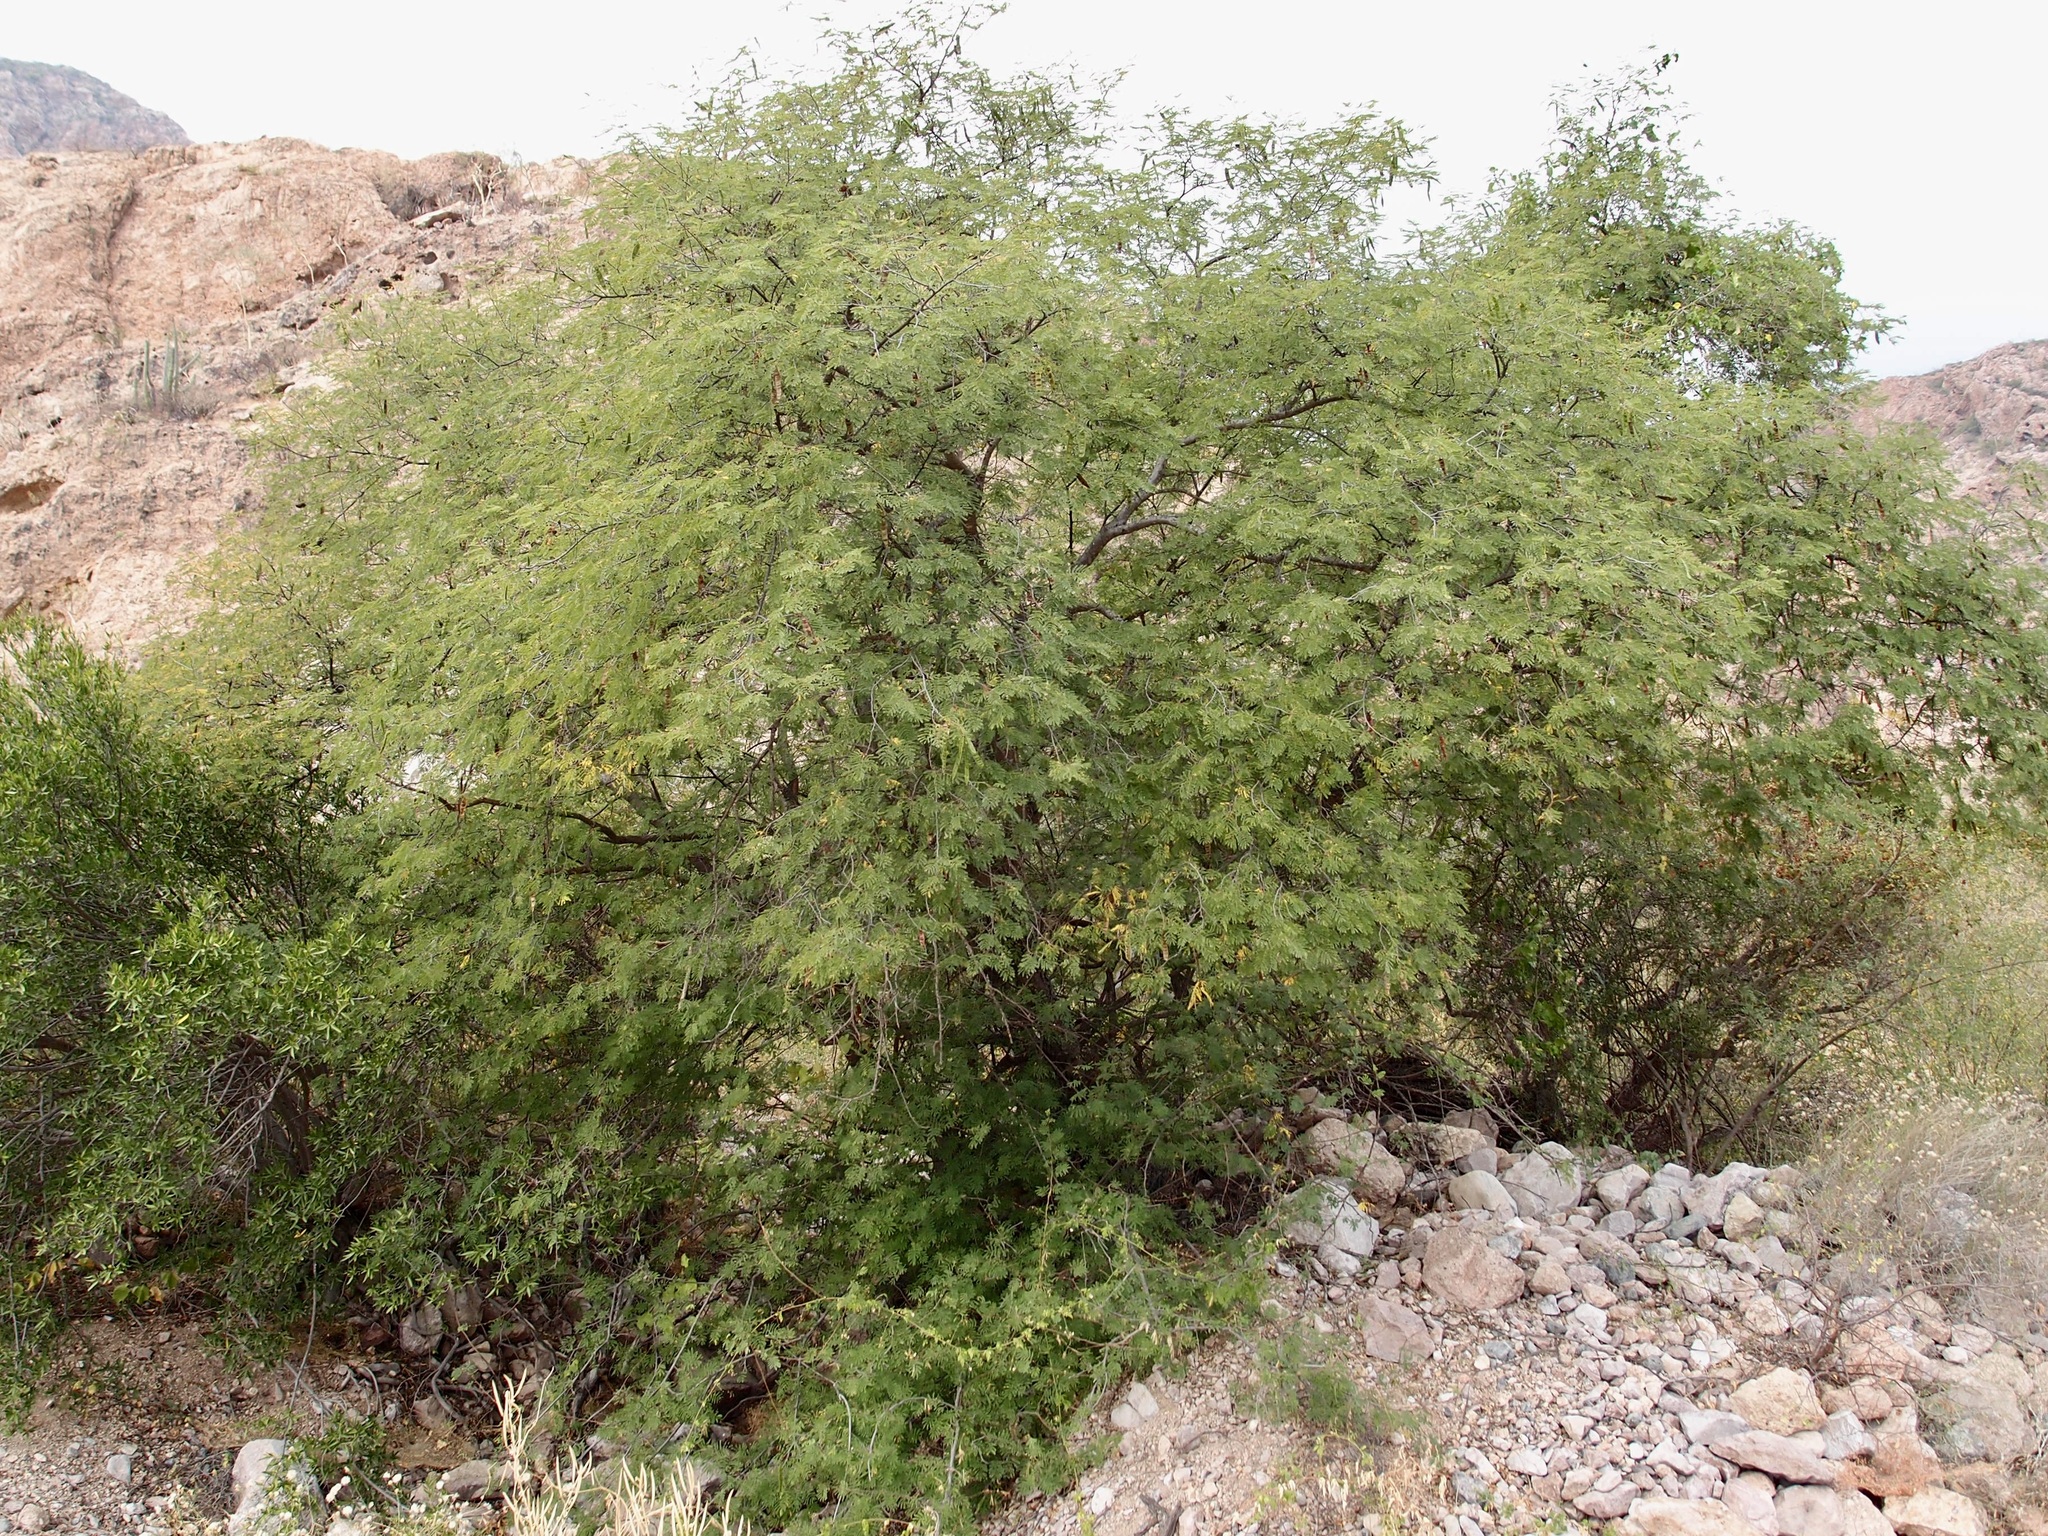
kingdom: Plantae
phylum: Tracheophyta
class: Magnoliopsida
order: Fabales
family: Fabaceae
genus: Lysiloma
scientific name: Lysiloma divaricatum
